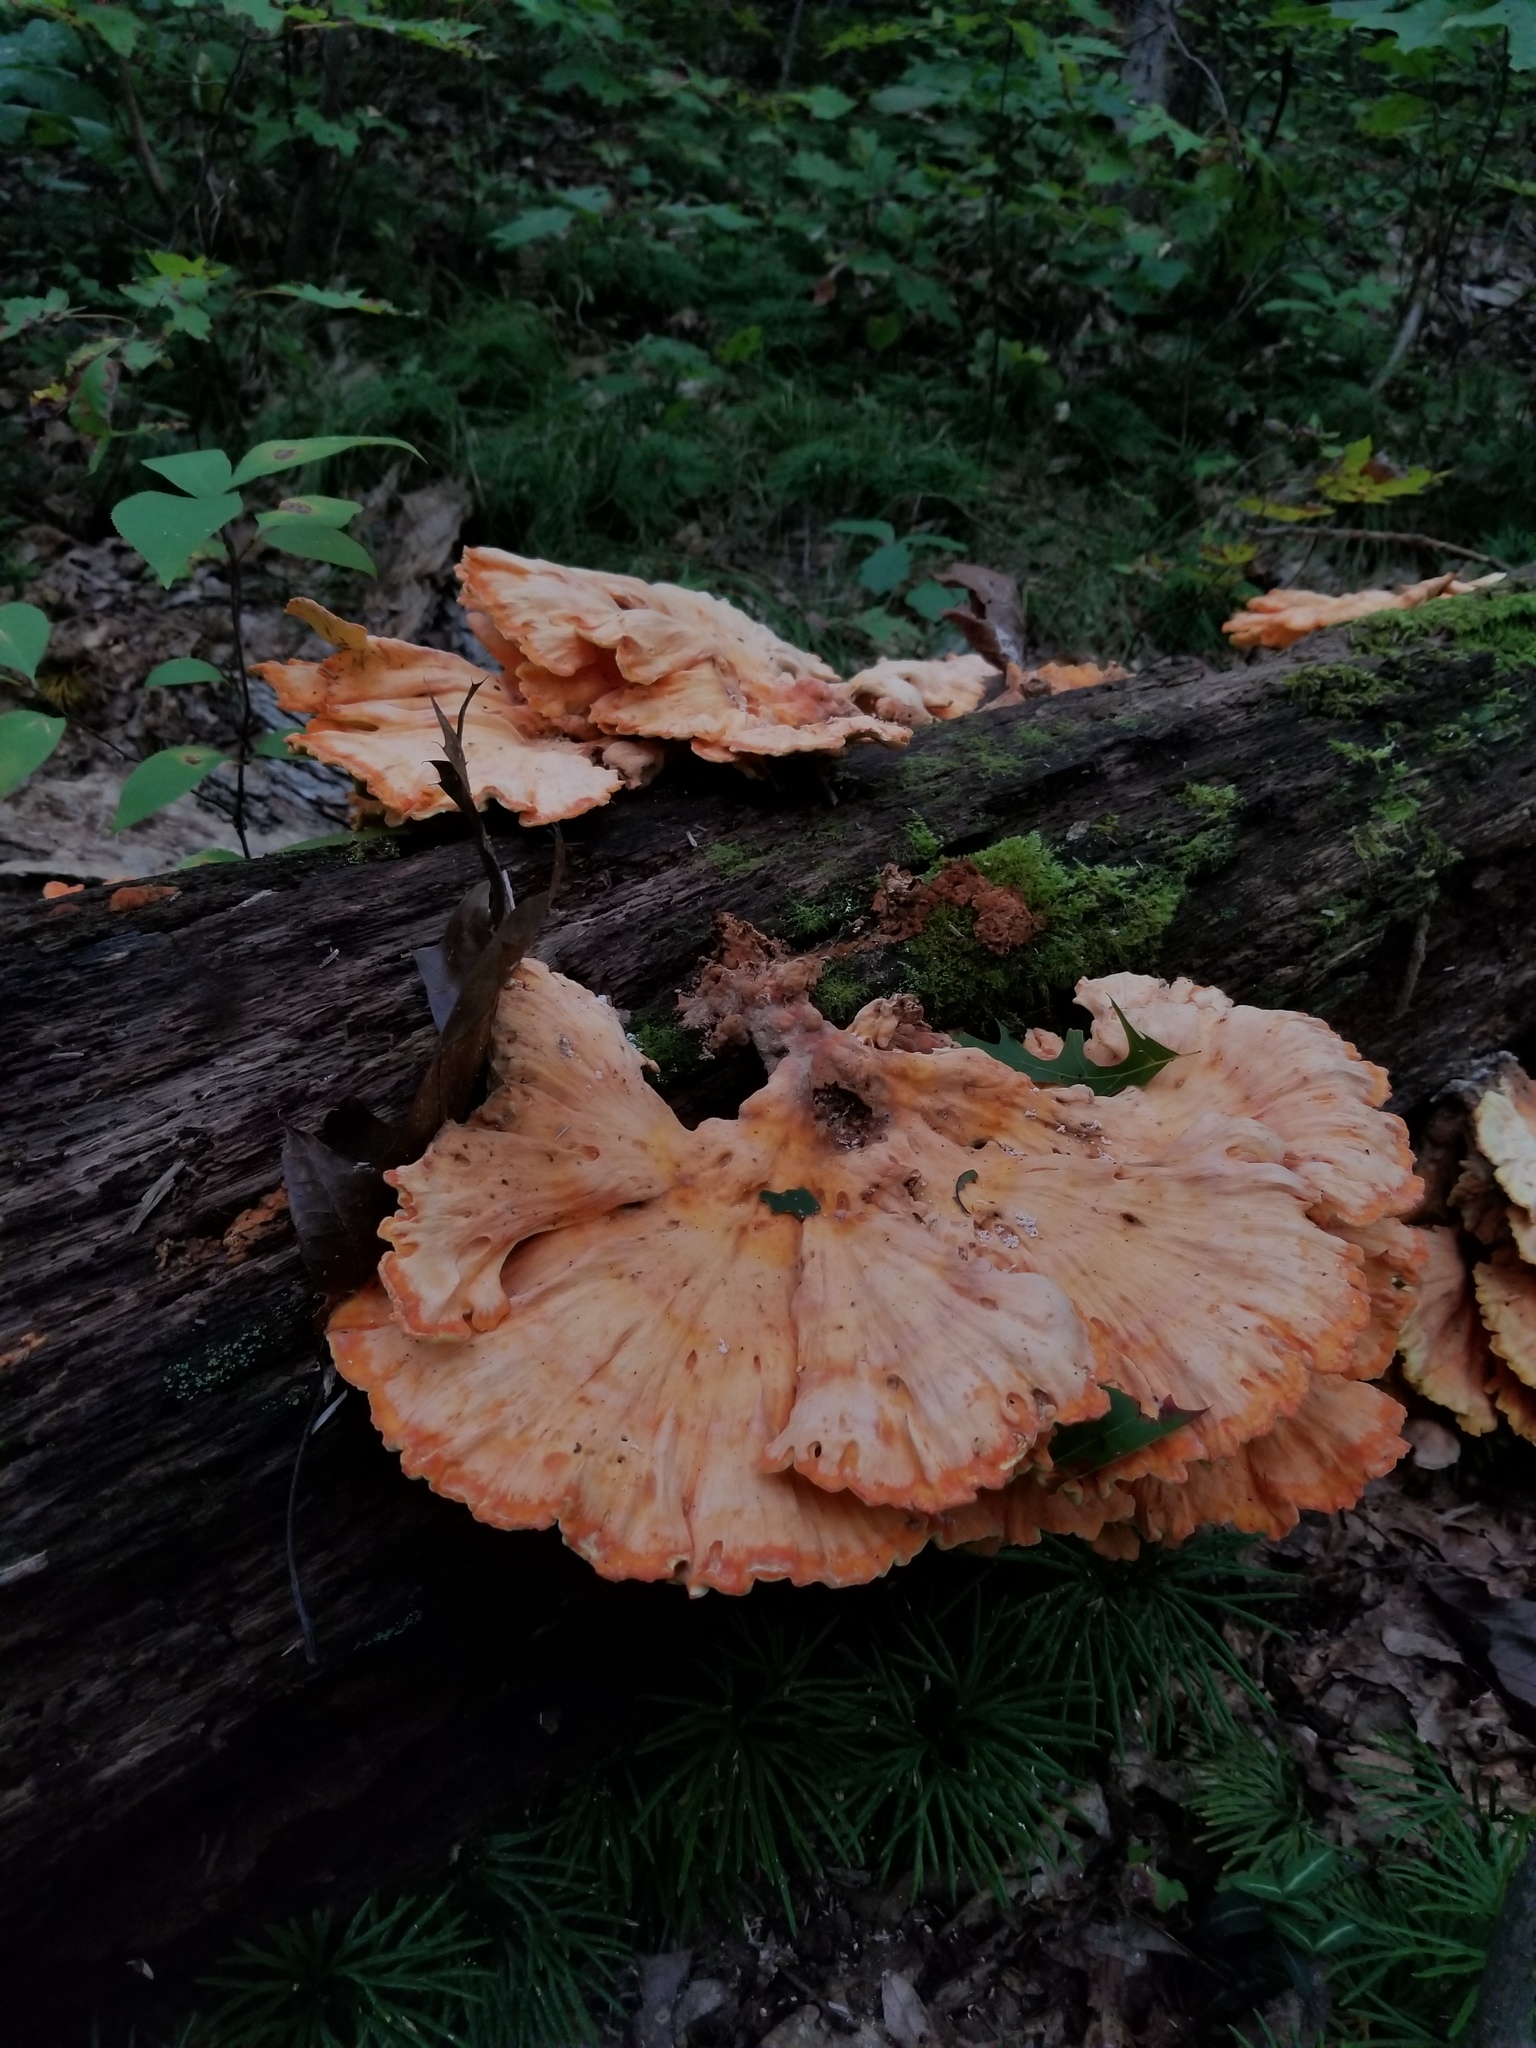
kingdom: Fungi
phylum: Basidiomycota
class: Agaricomycetes
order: Polyporales
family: Laetiporaceae
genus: Laetiporus
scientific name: Laetiporus sulphureus
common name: Chicken of the woods
